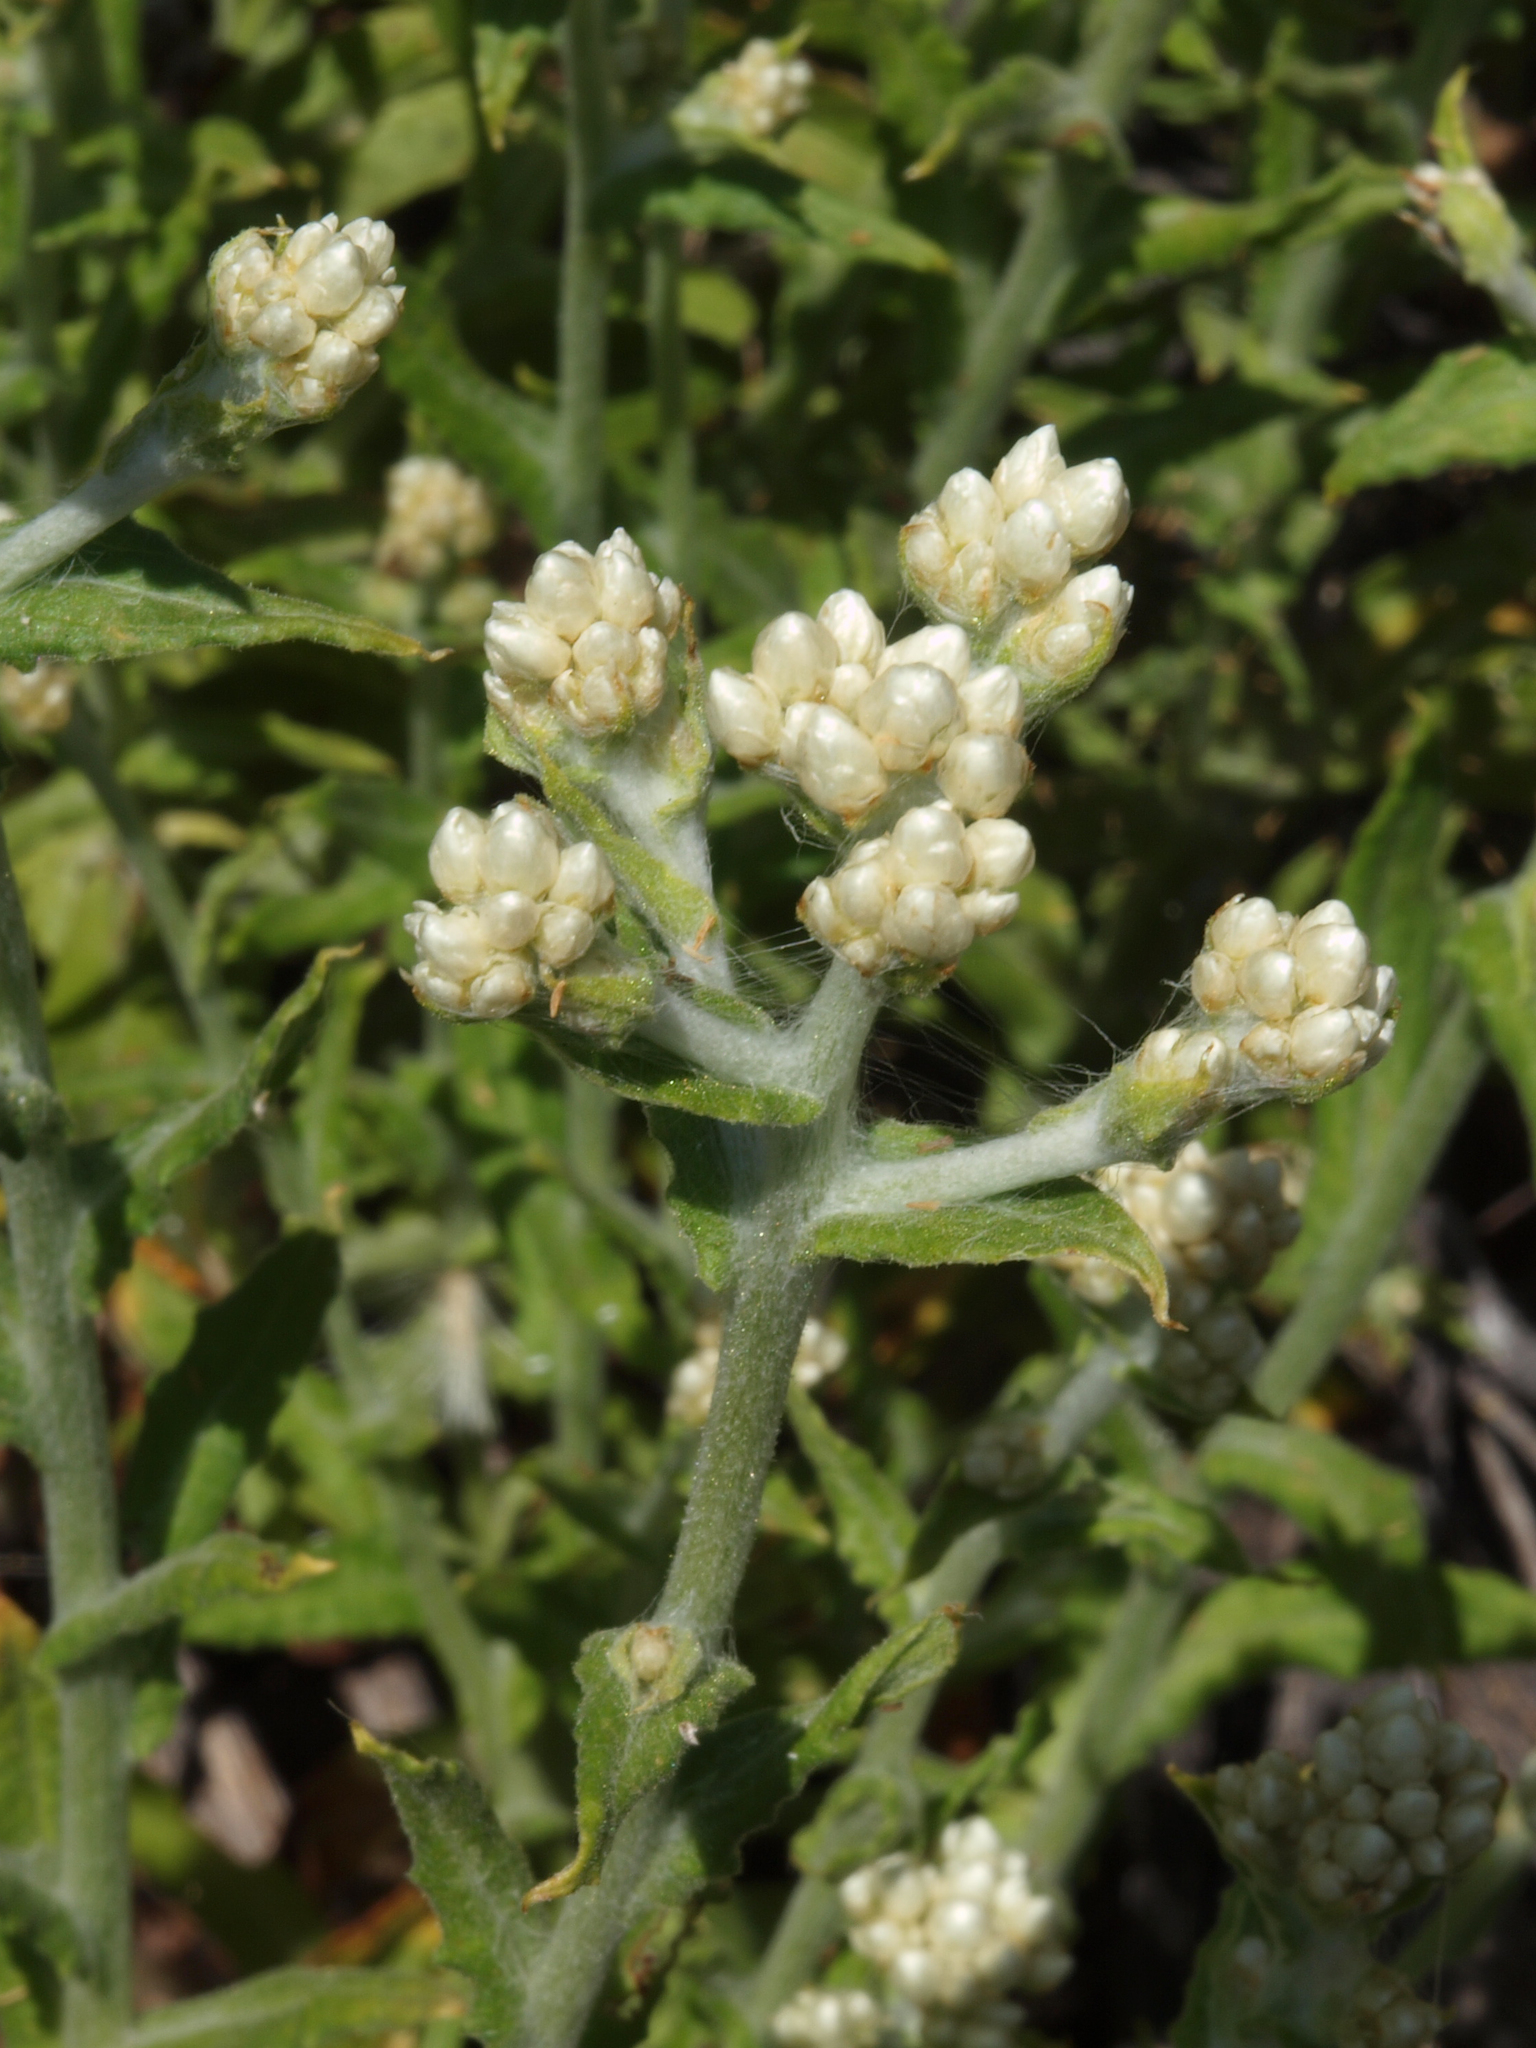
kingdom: Plantae
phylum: Tracheophyta
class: Magnoliopsida
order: Asterales
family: Asteraceae
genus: Pseudognaphalium
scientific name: Pseudognaphalium californicum
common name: California rabbit-tobacco
